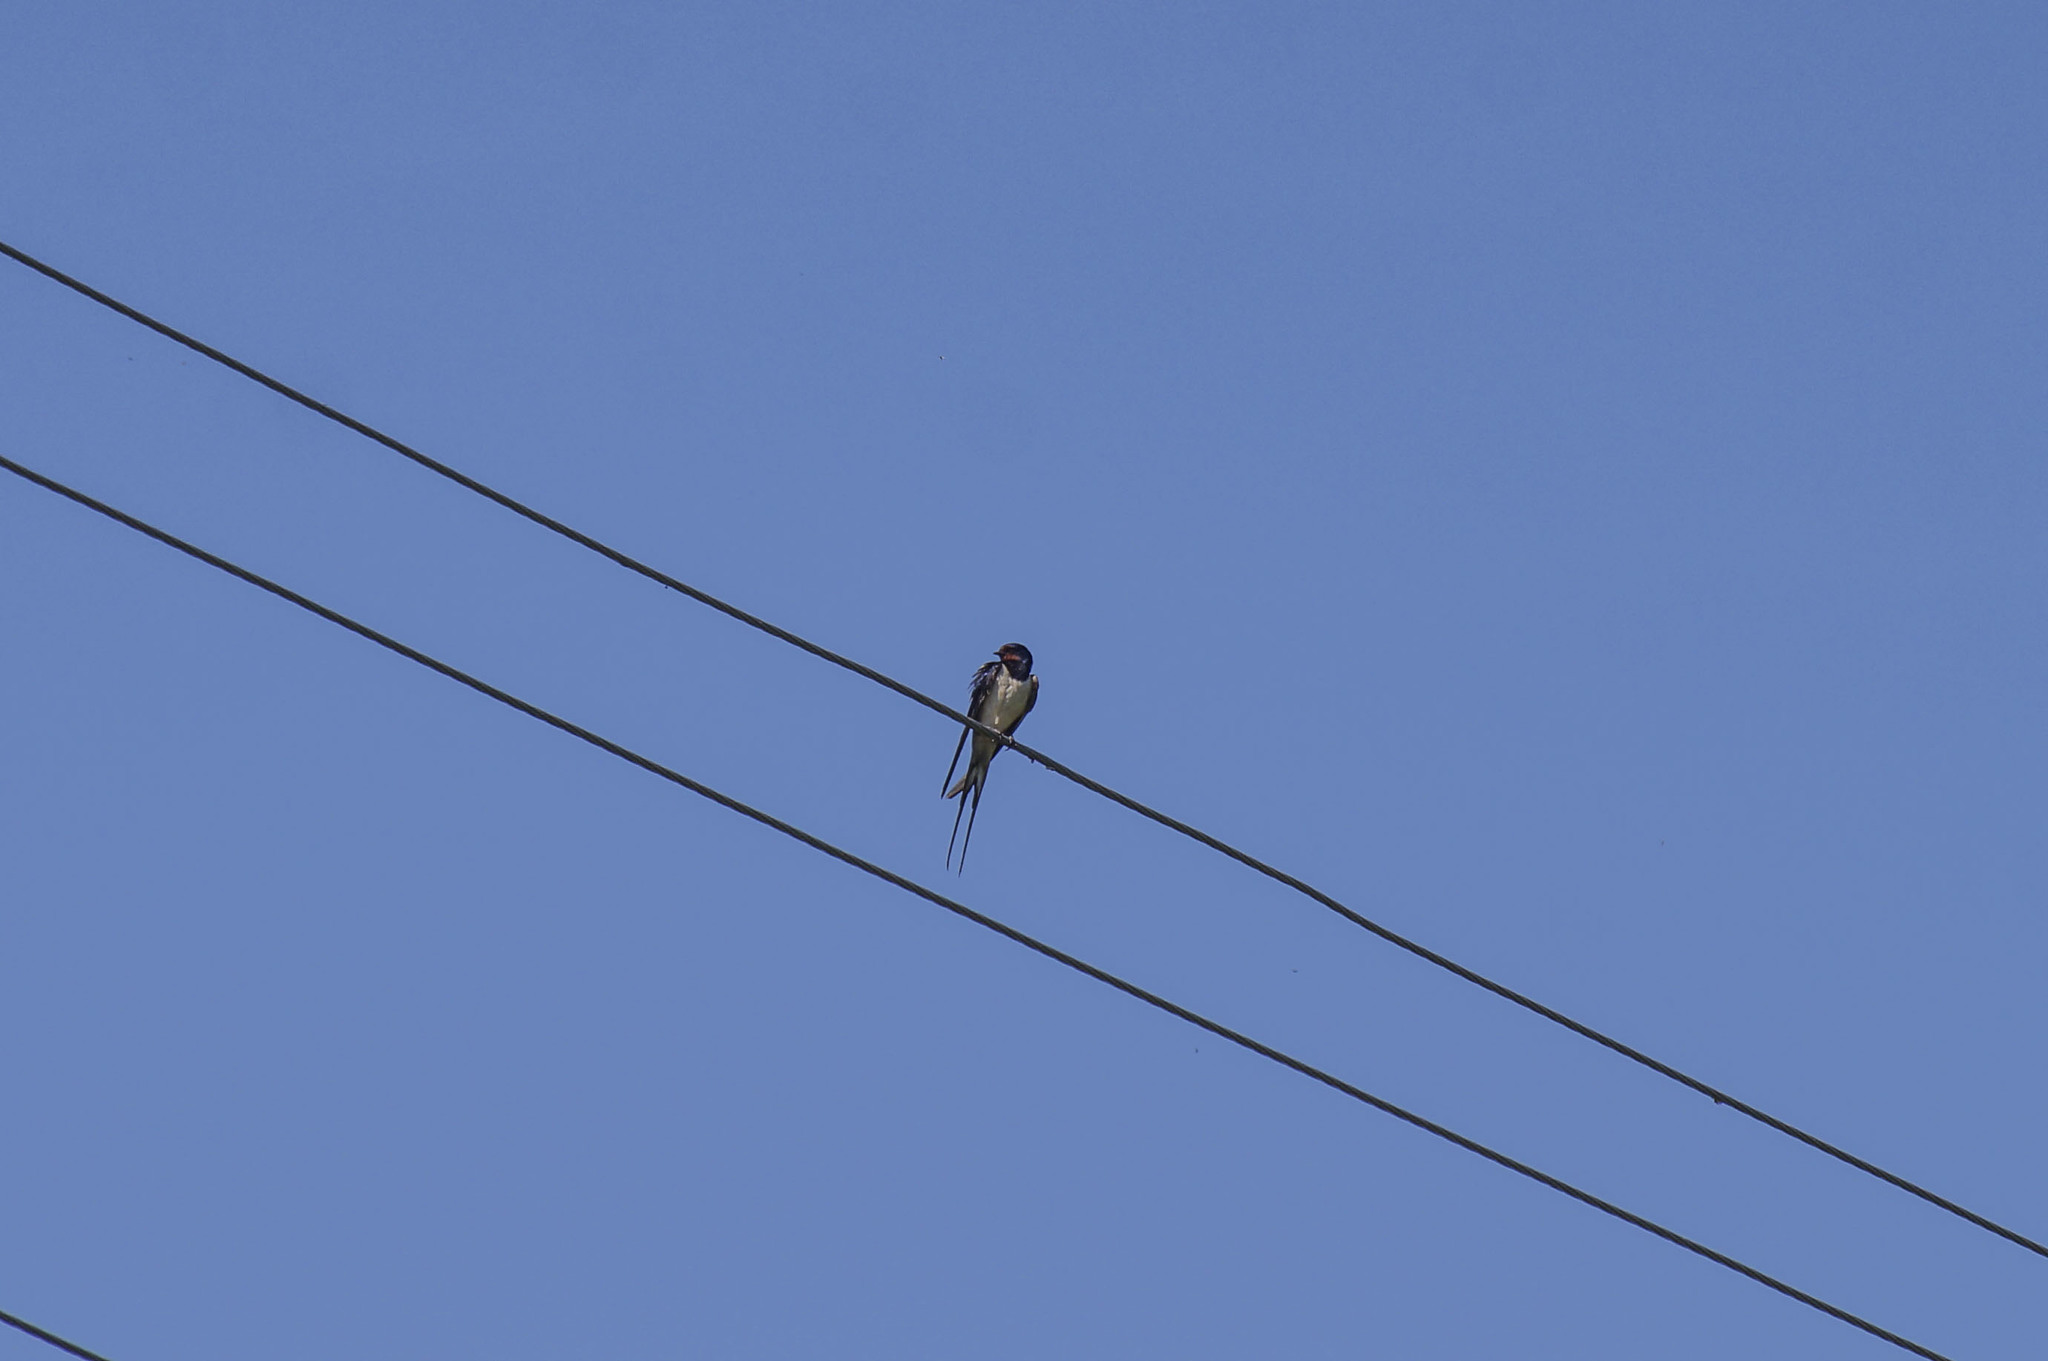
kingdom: Animalia
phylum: Chordata
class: Aves
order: Passeriformes
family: Hirundinidae
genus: Hirundo
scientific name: Hirundo rustica
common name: Barn swallow
